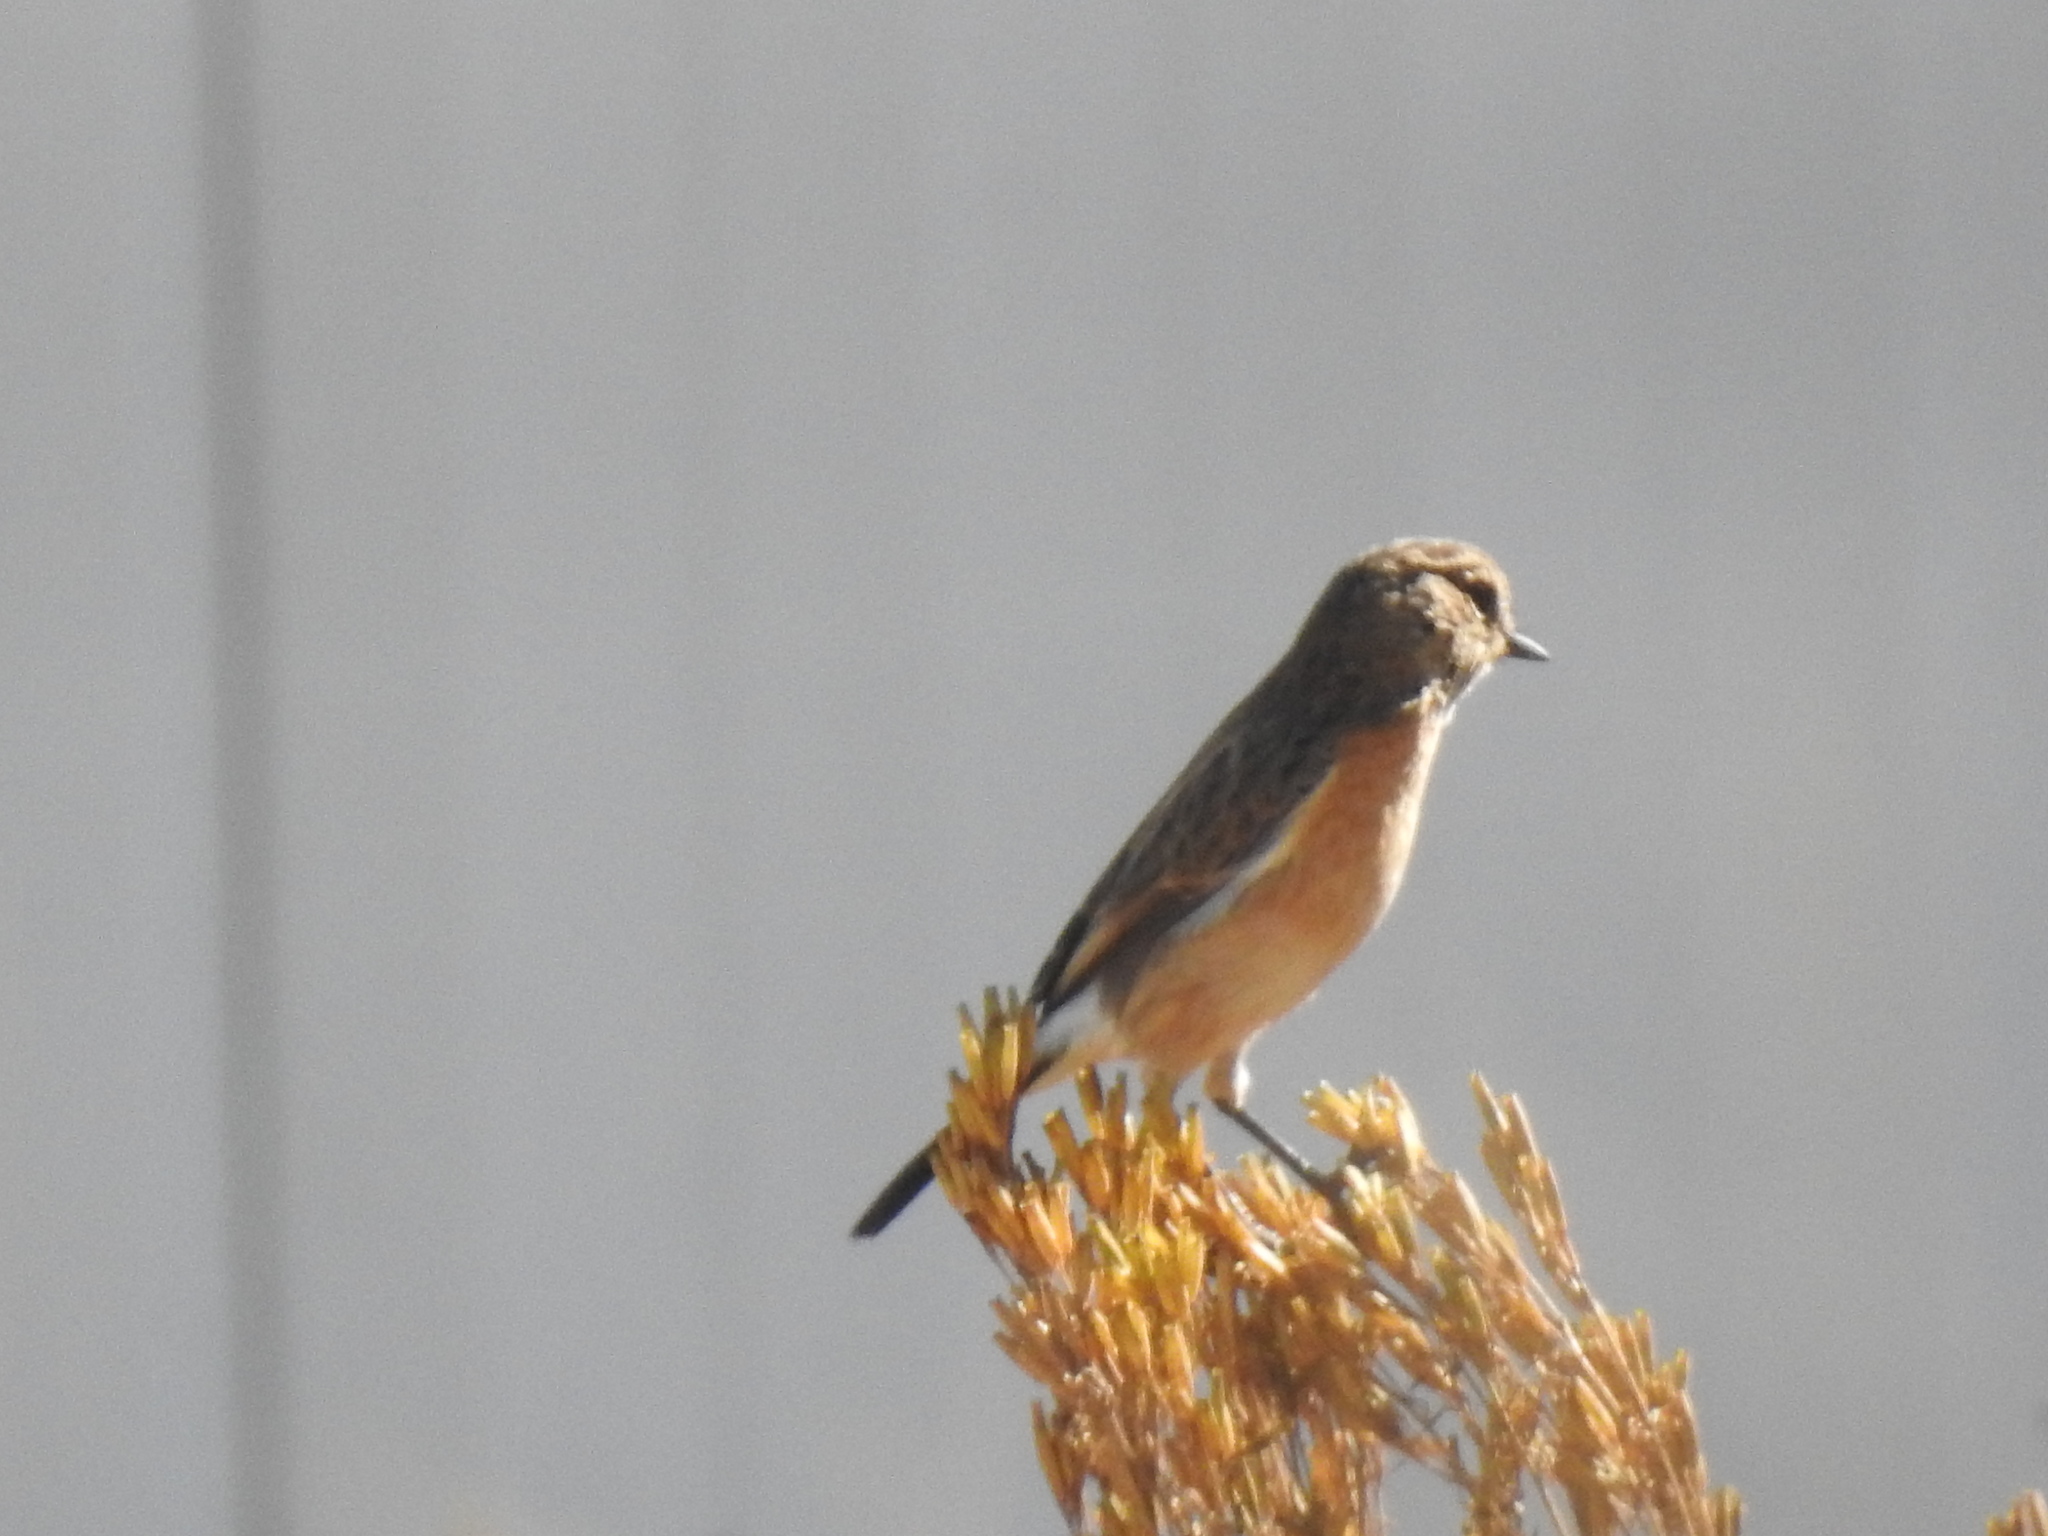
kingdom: Animalia
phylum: Chordata
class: Aves
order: Passeriformes
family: Muscicapidae
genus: Saxicola
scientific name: Saxicola torquatus
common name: African stonechat
